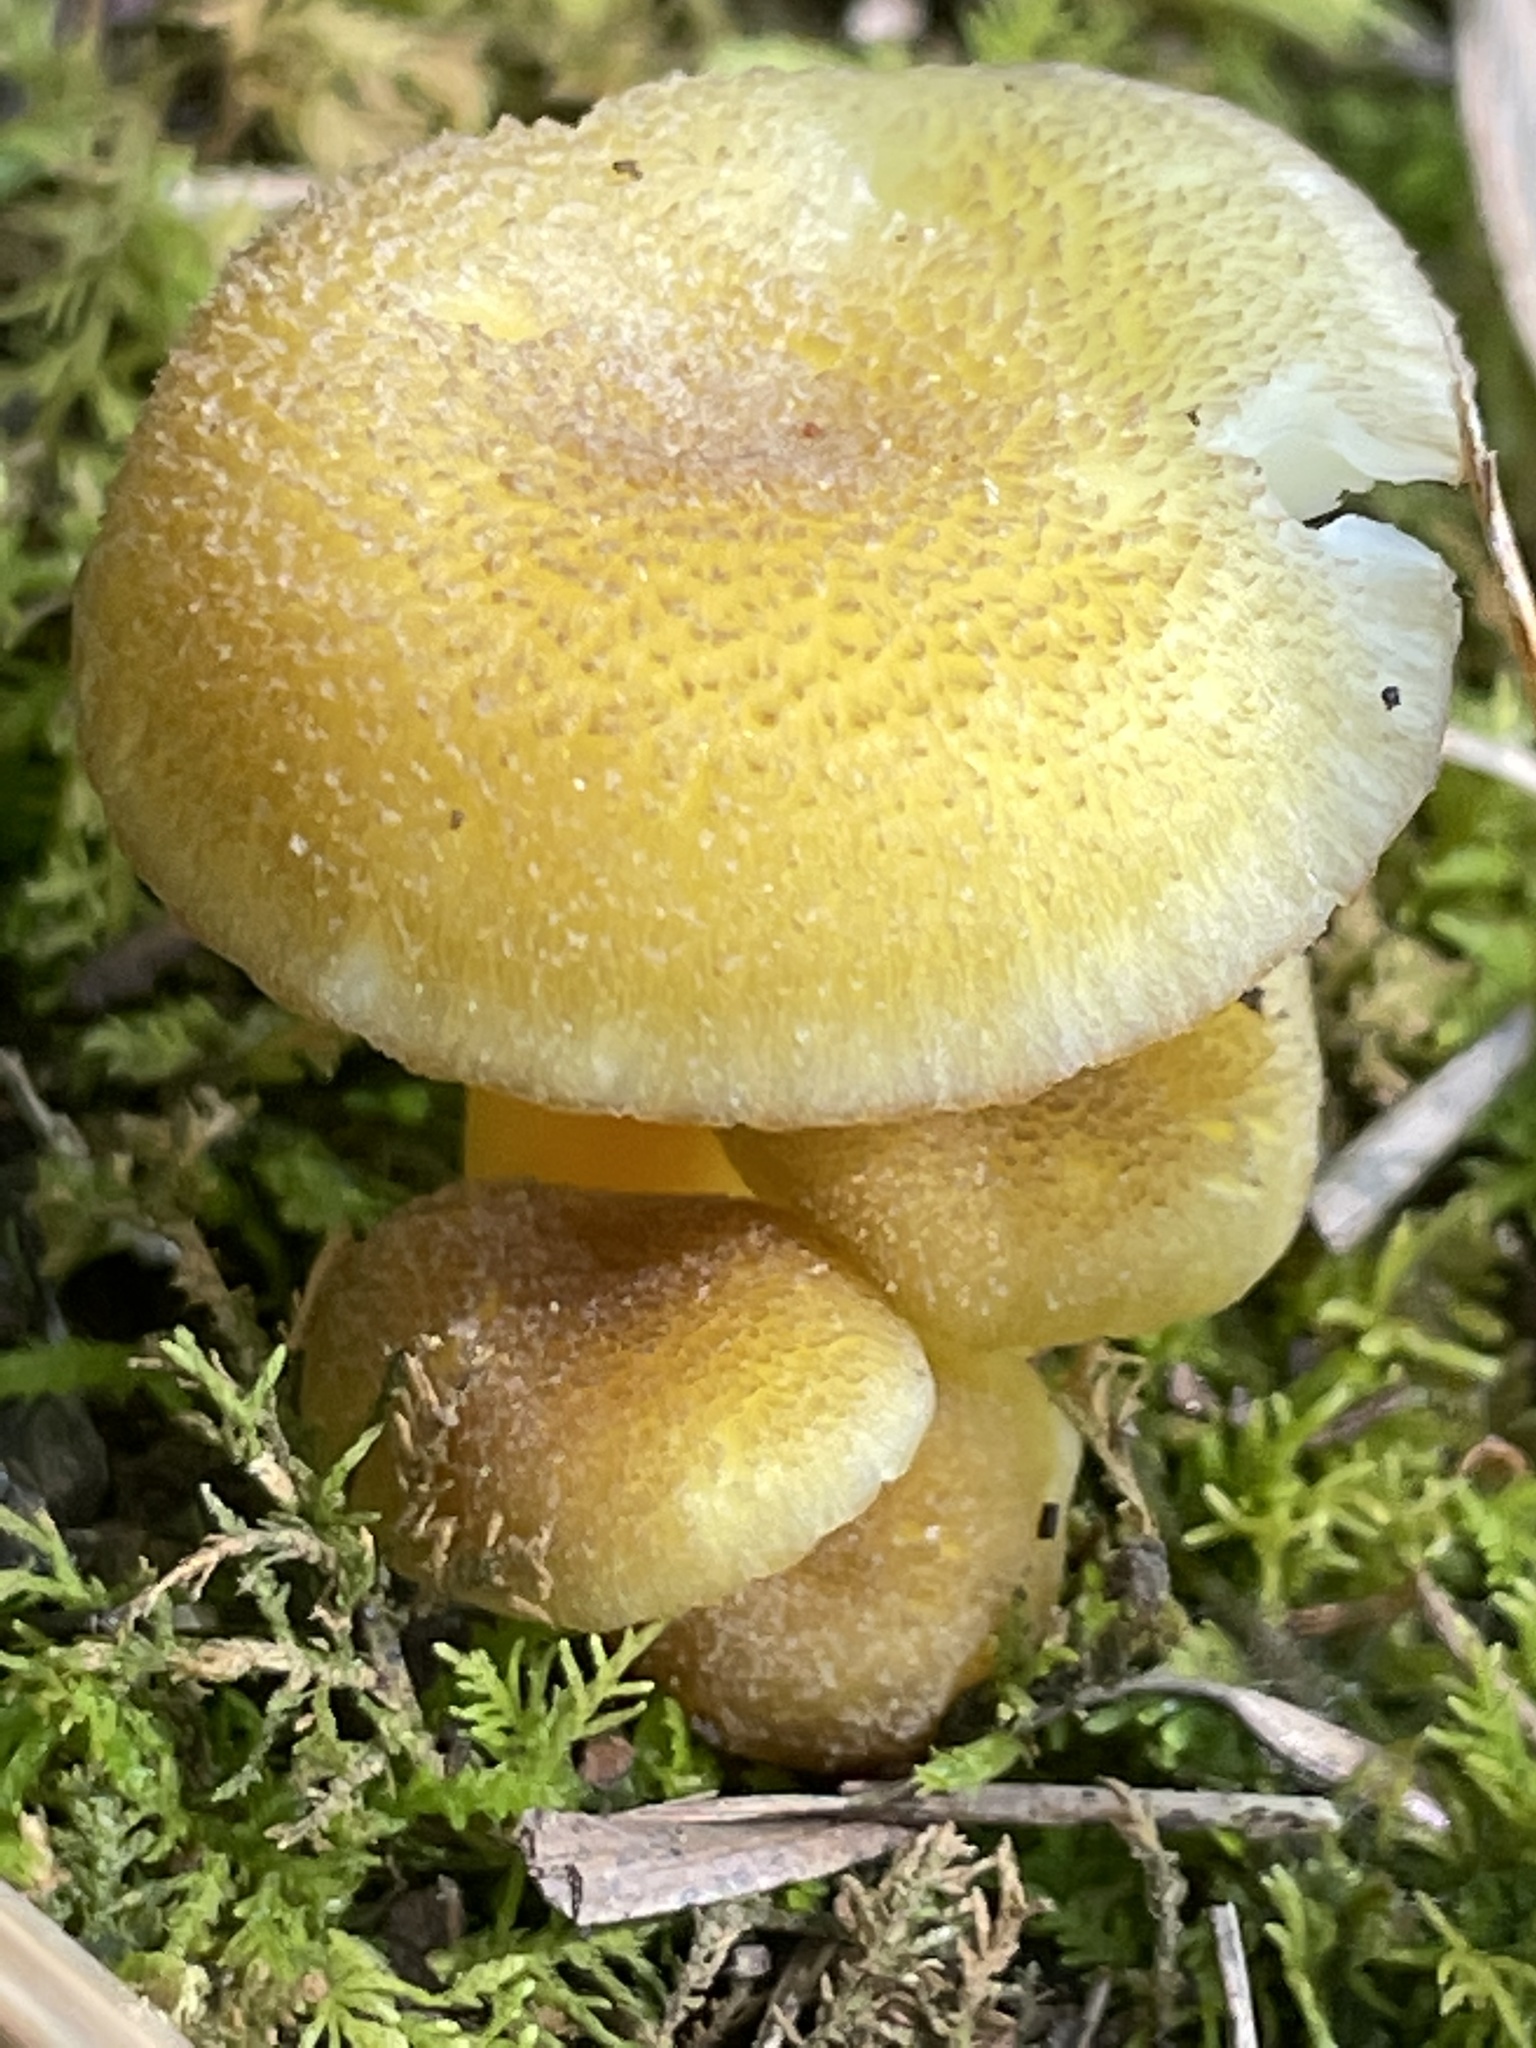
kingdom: Fungi
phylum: Basidiomycota
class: Agaricomycetes
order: Agaricales
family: Hygrophoraceae
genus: Hygrocybe
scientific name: Hygrocybe caespitosa
